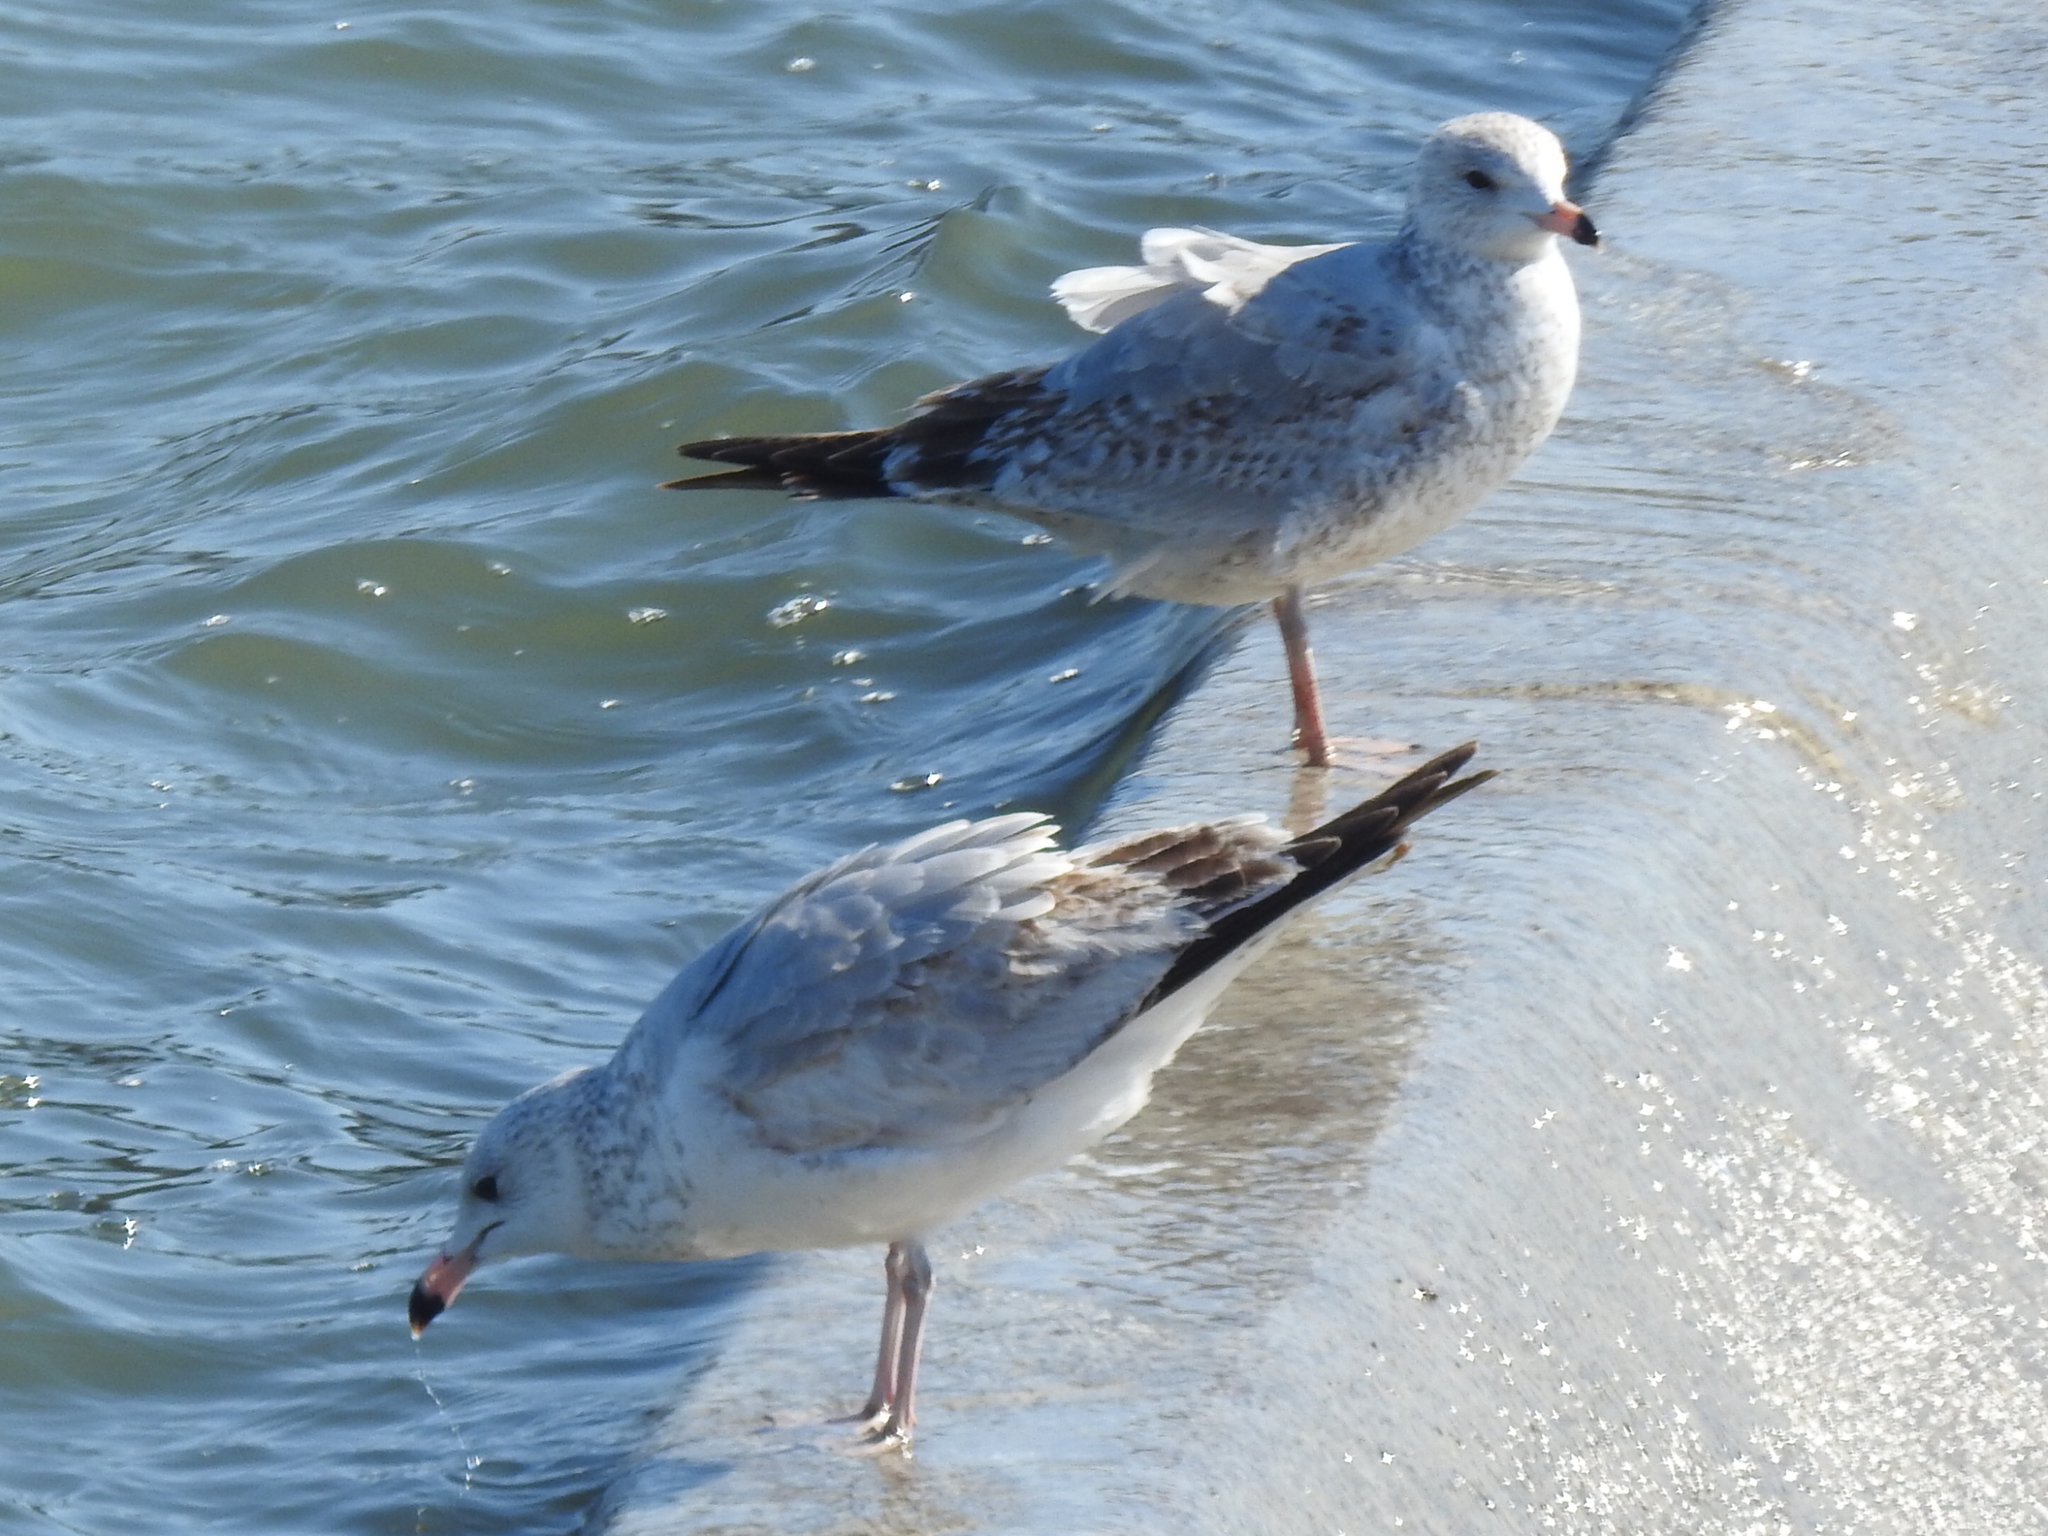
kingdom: Animalia
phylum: Chordata
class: Aves
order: Charadriiformes
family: Laridae
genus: Larus
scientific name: Larus delawarensis
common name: Ring-billed gull
